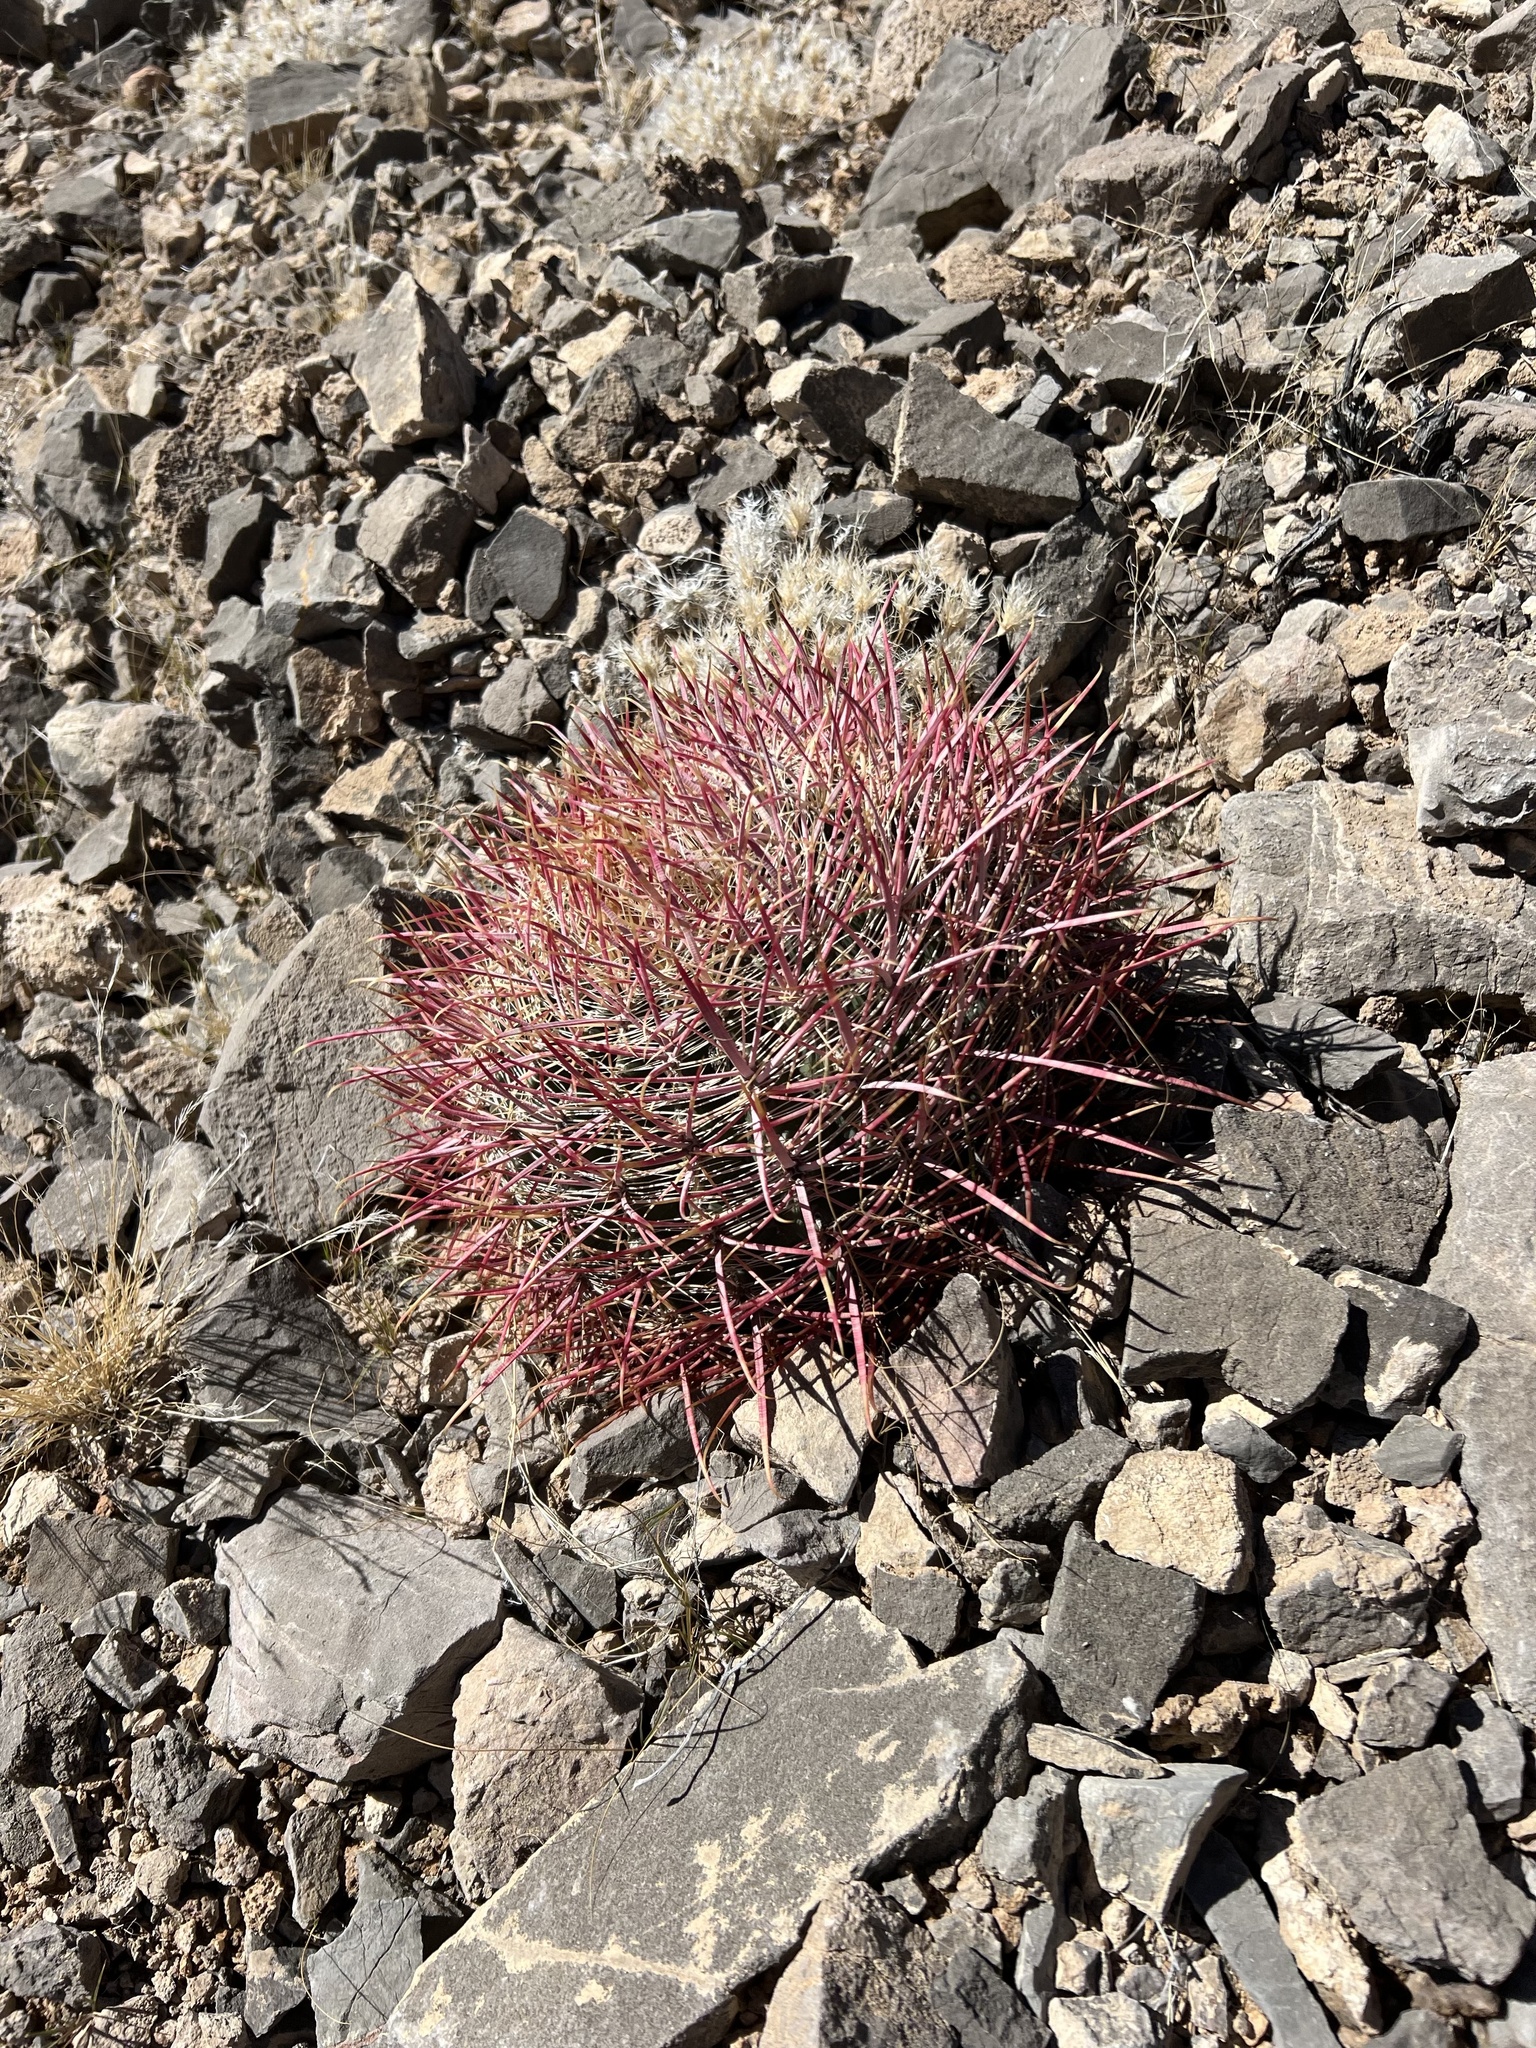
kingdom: Plantae
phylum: Tracheophyta
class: Magnoliopsida
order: Caryophyllales
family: Cactaceae
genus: Ferocactus
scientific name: Ferocactus cylindraceus
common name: California barrel cactus
